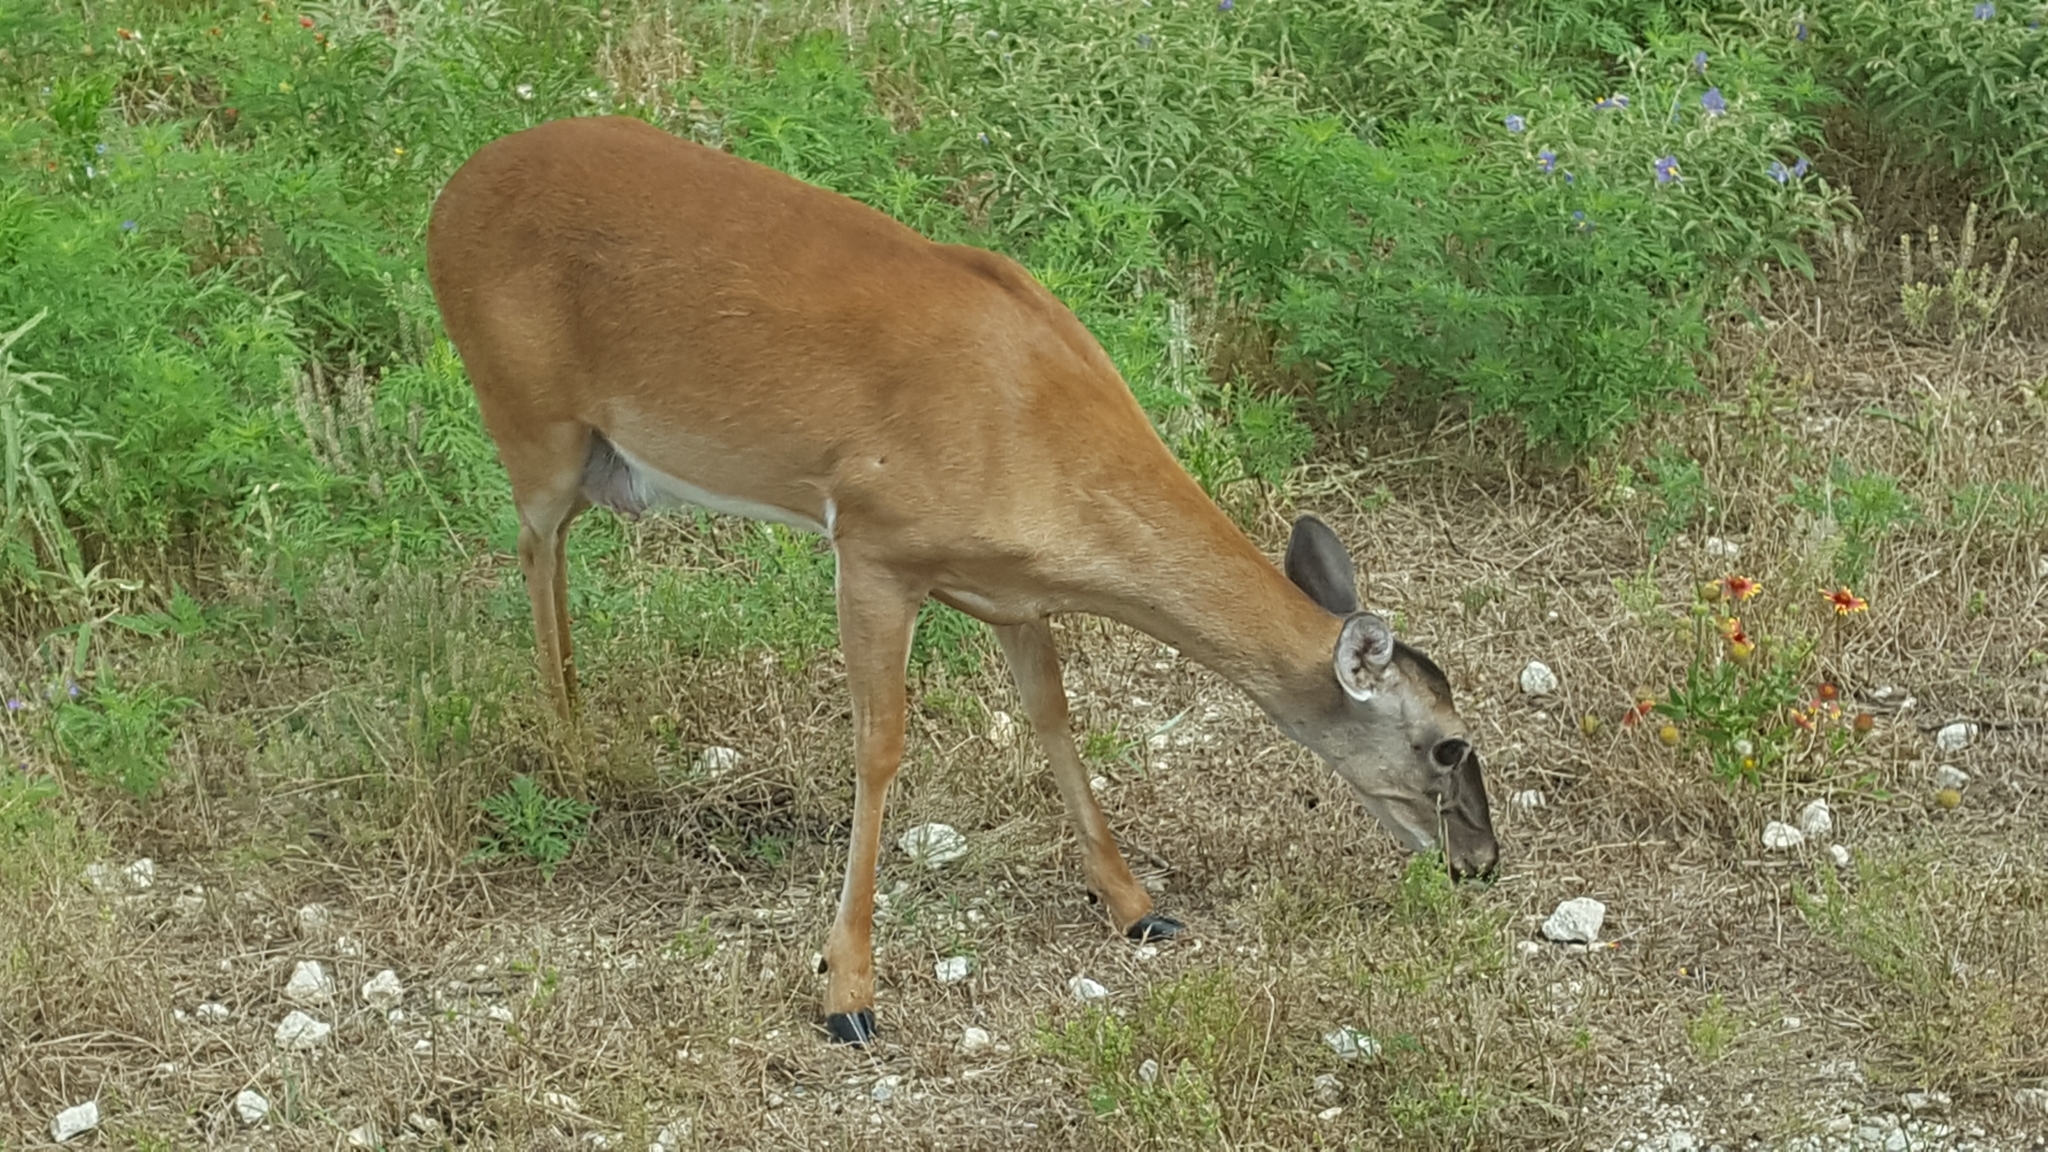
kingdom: Animalia
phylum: Chordata
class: Mammalia
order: Artiodactyla
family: Cervidae
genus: Odocoileus
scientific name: Odocoileus virginianus
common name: White-tailed deer
